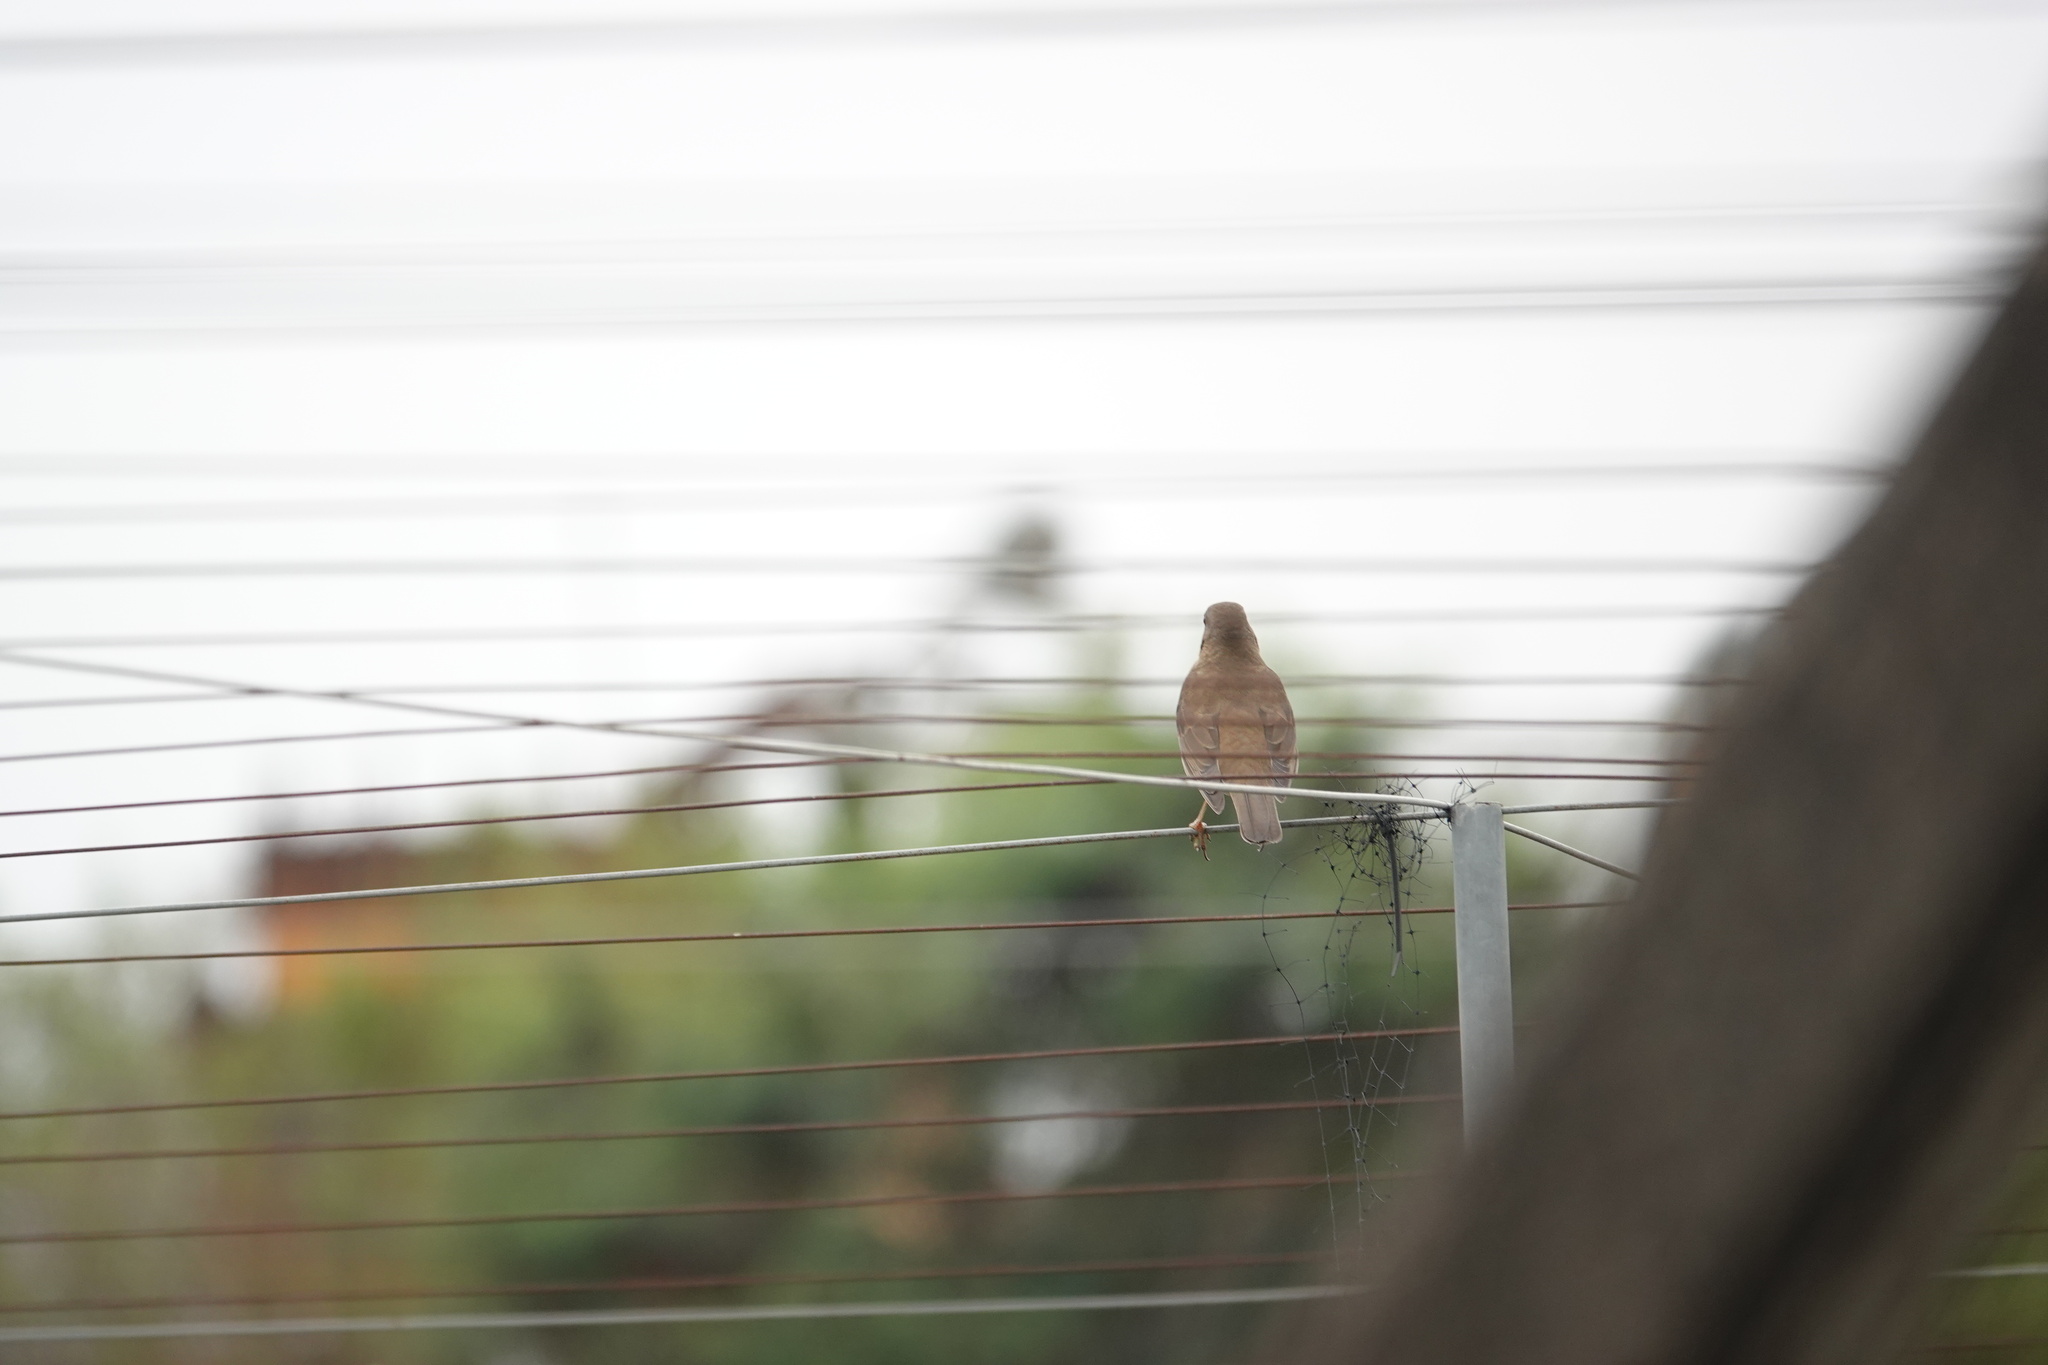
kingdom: Animalia
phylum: Chordata
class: Aves
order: Passeriformes
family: Turdidae
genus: Turdus
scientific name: Turdus chrysolaus
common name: Brown-headed thrush
